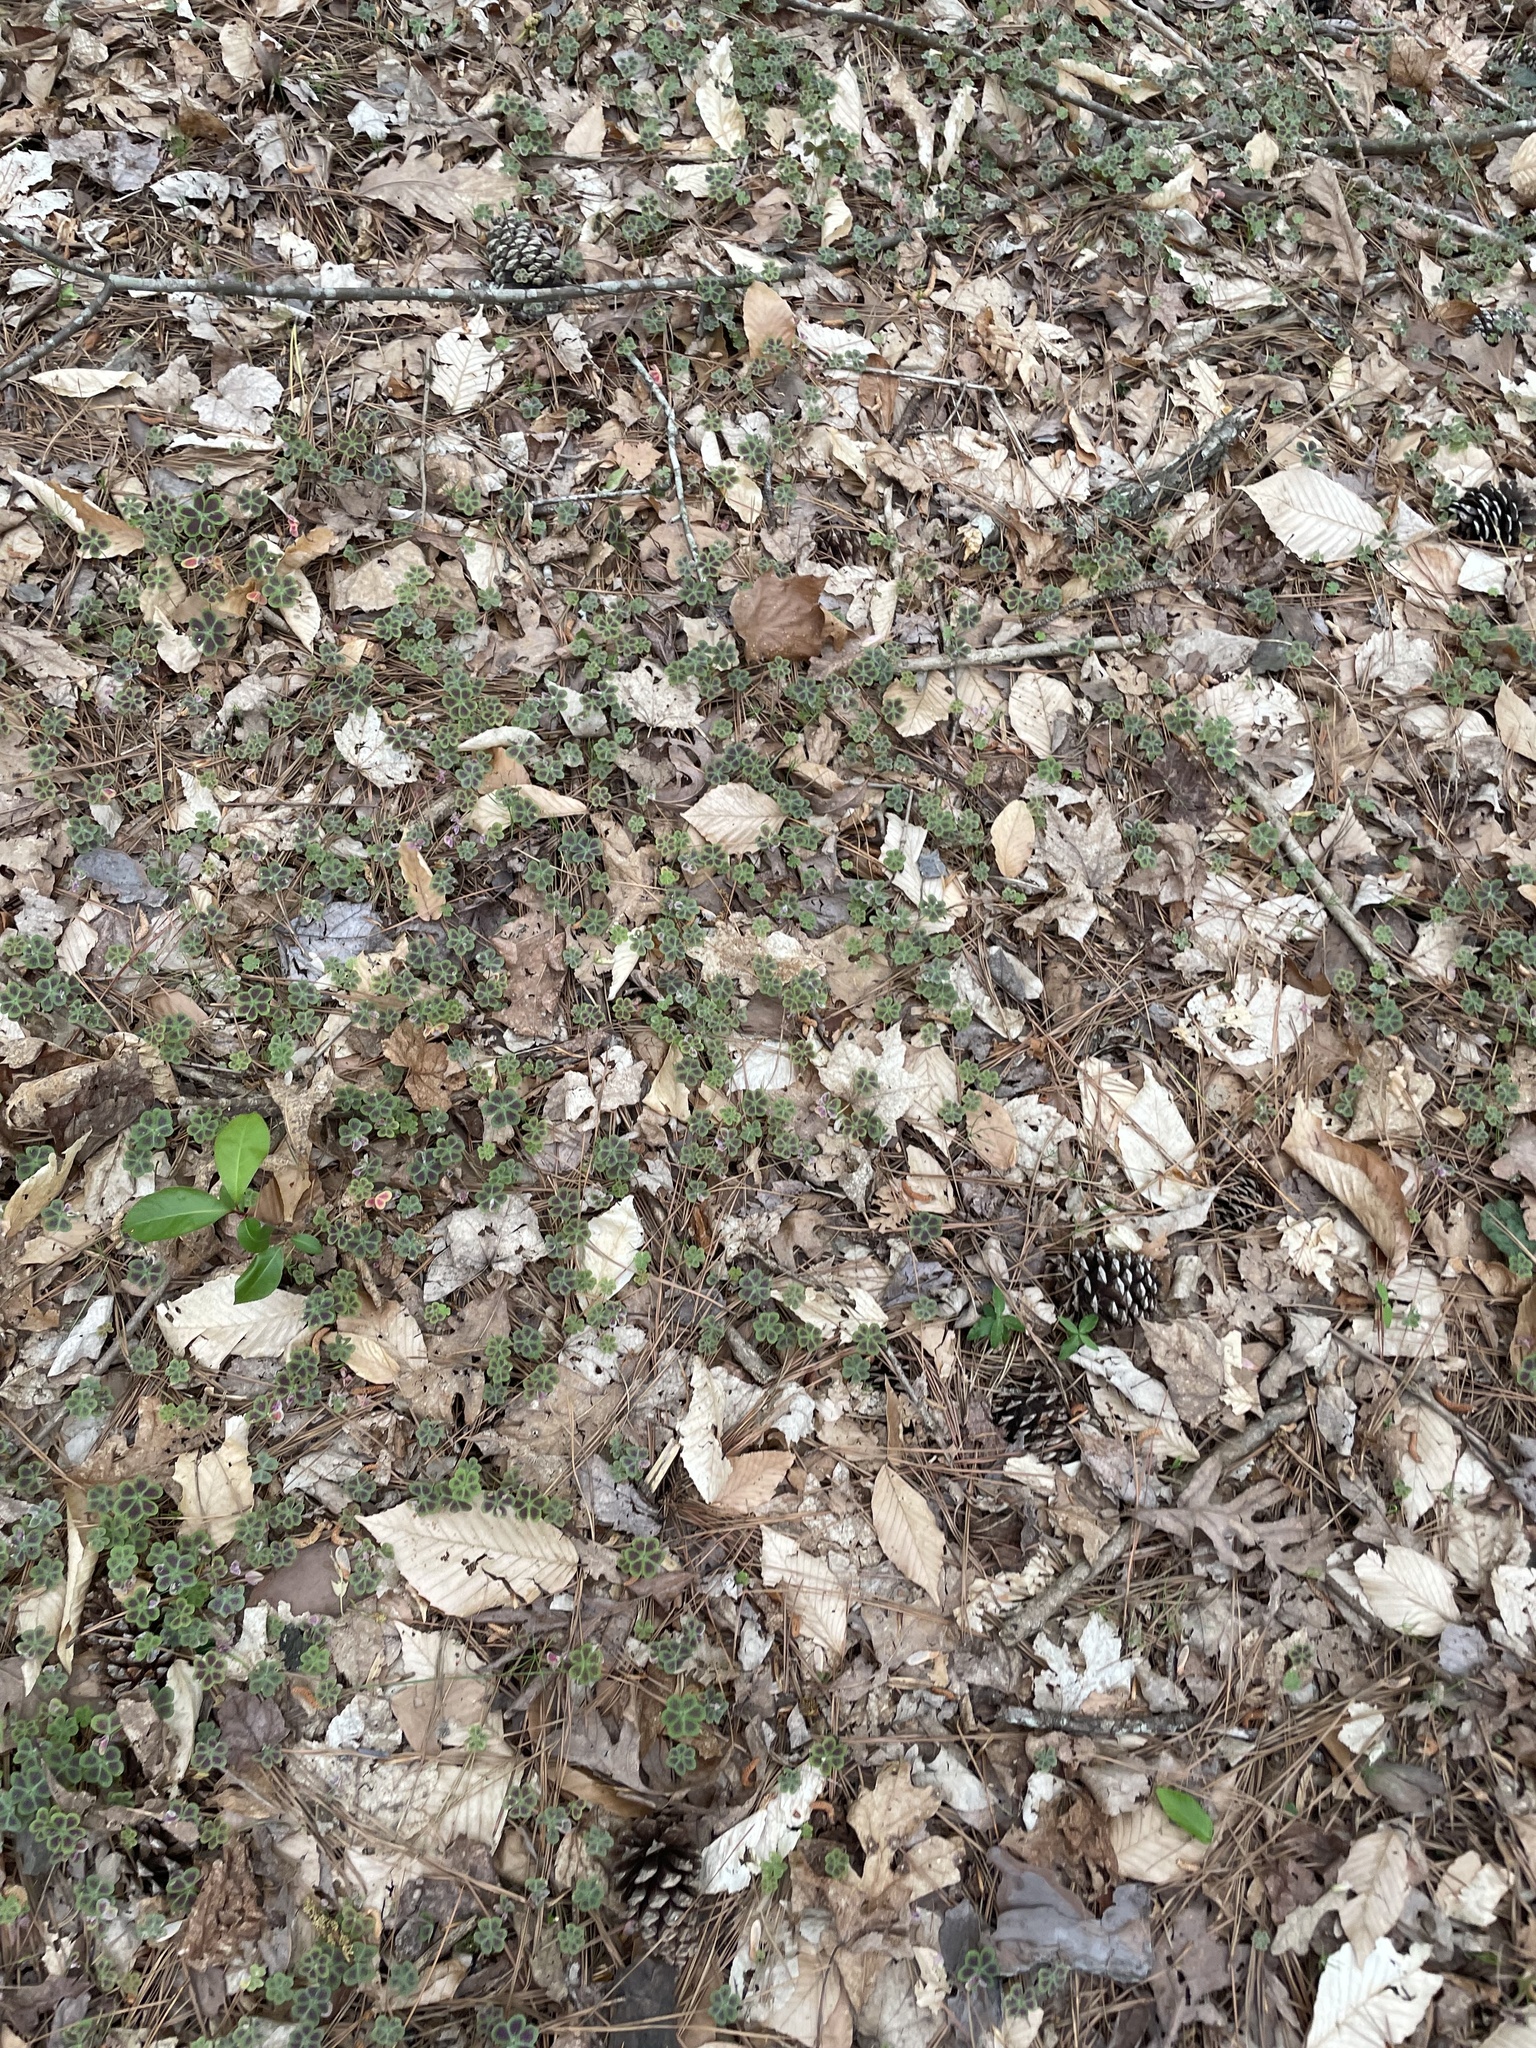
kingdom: Plantae
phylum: Tracheophyta
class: Magnoliopsida
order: Oxalidales
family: Oxalidaceae
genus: Oxalis
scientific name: Oxalis violacea
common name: Violet wood-sorrel
